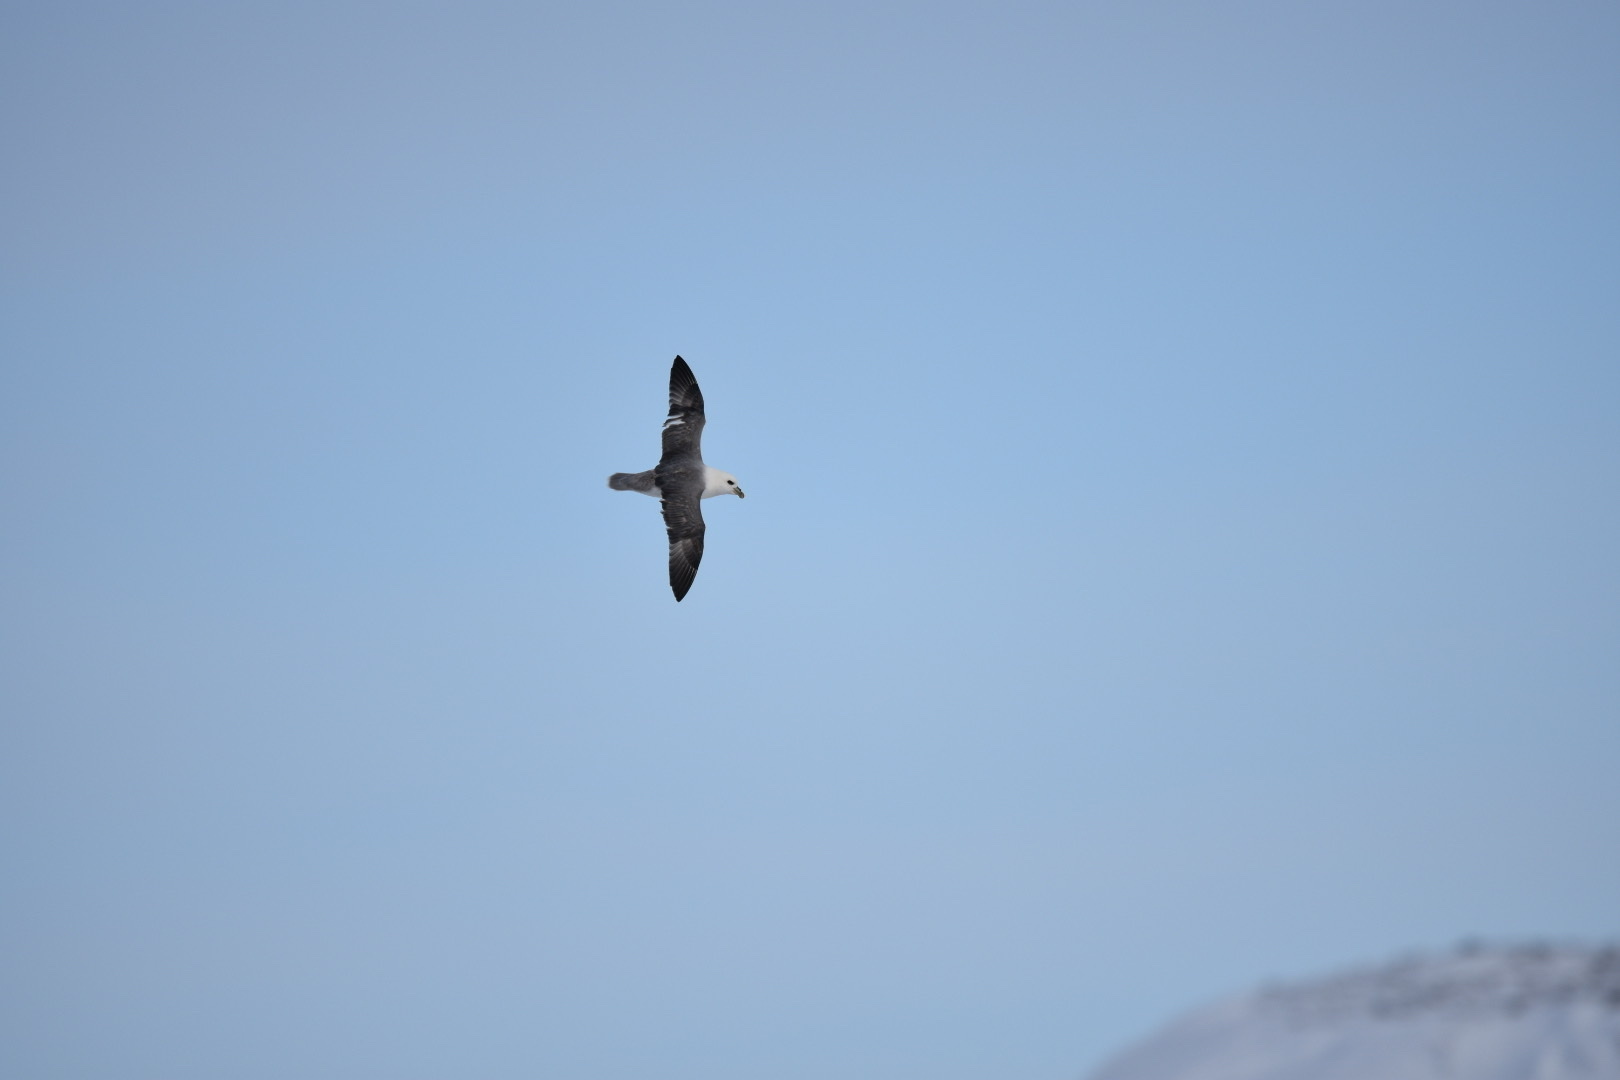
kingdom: Animalia
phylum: Chordata
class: Aves
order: Procellariiformes
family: Procellariidae
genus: Fulmarus
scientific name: Fulmarus glacialis
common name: Northern fulmar
